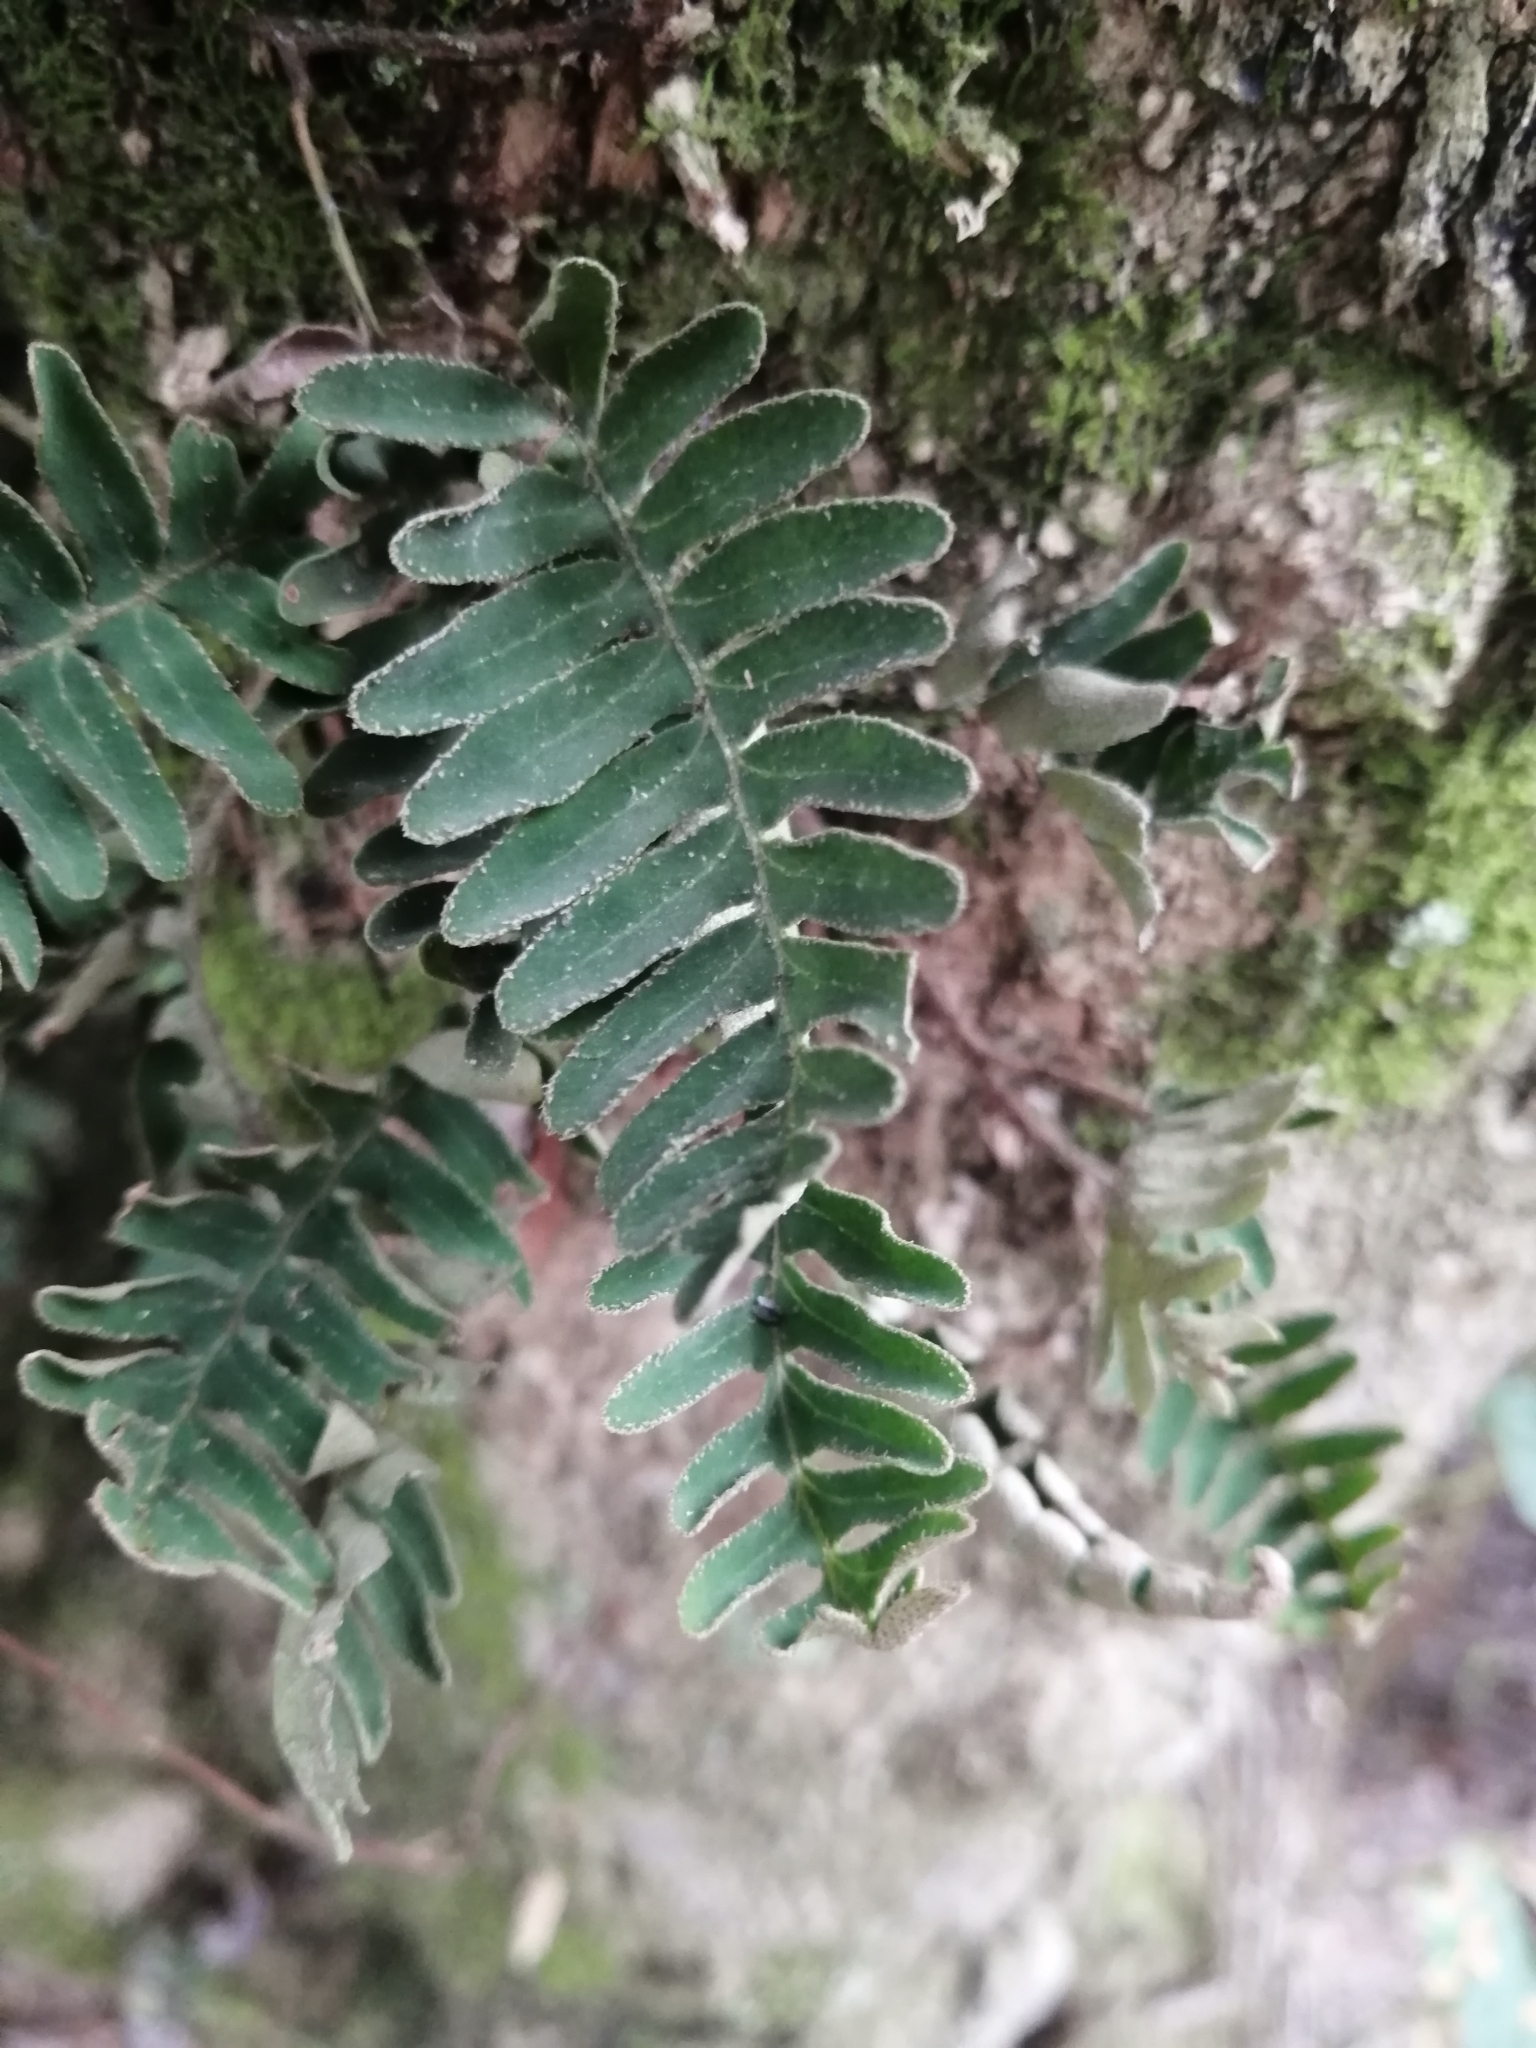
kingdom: Plantae
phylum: Tracheophyta
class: Polypodiopsida
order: Polypodiales
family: Polypodiaceae
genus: Pleopeltis
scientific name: Pleopeltis polypodioides
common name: Resurrection fern
